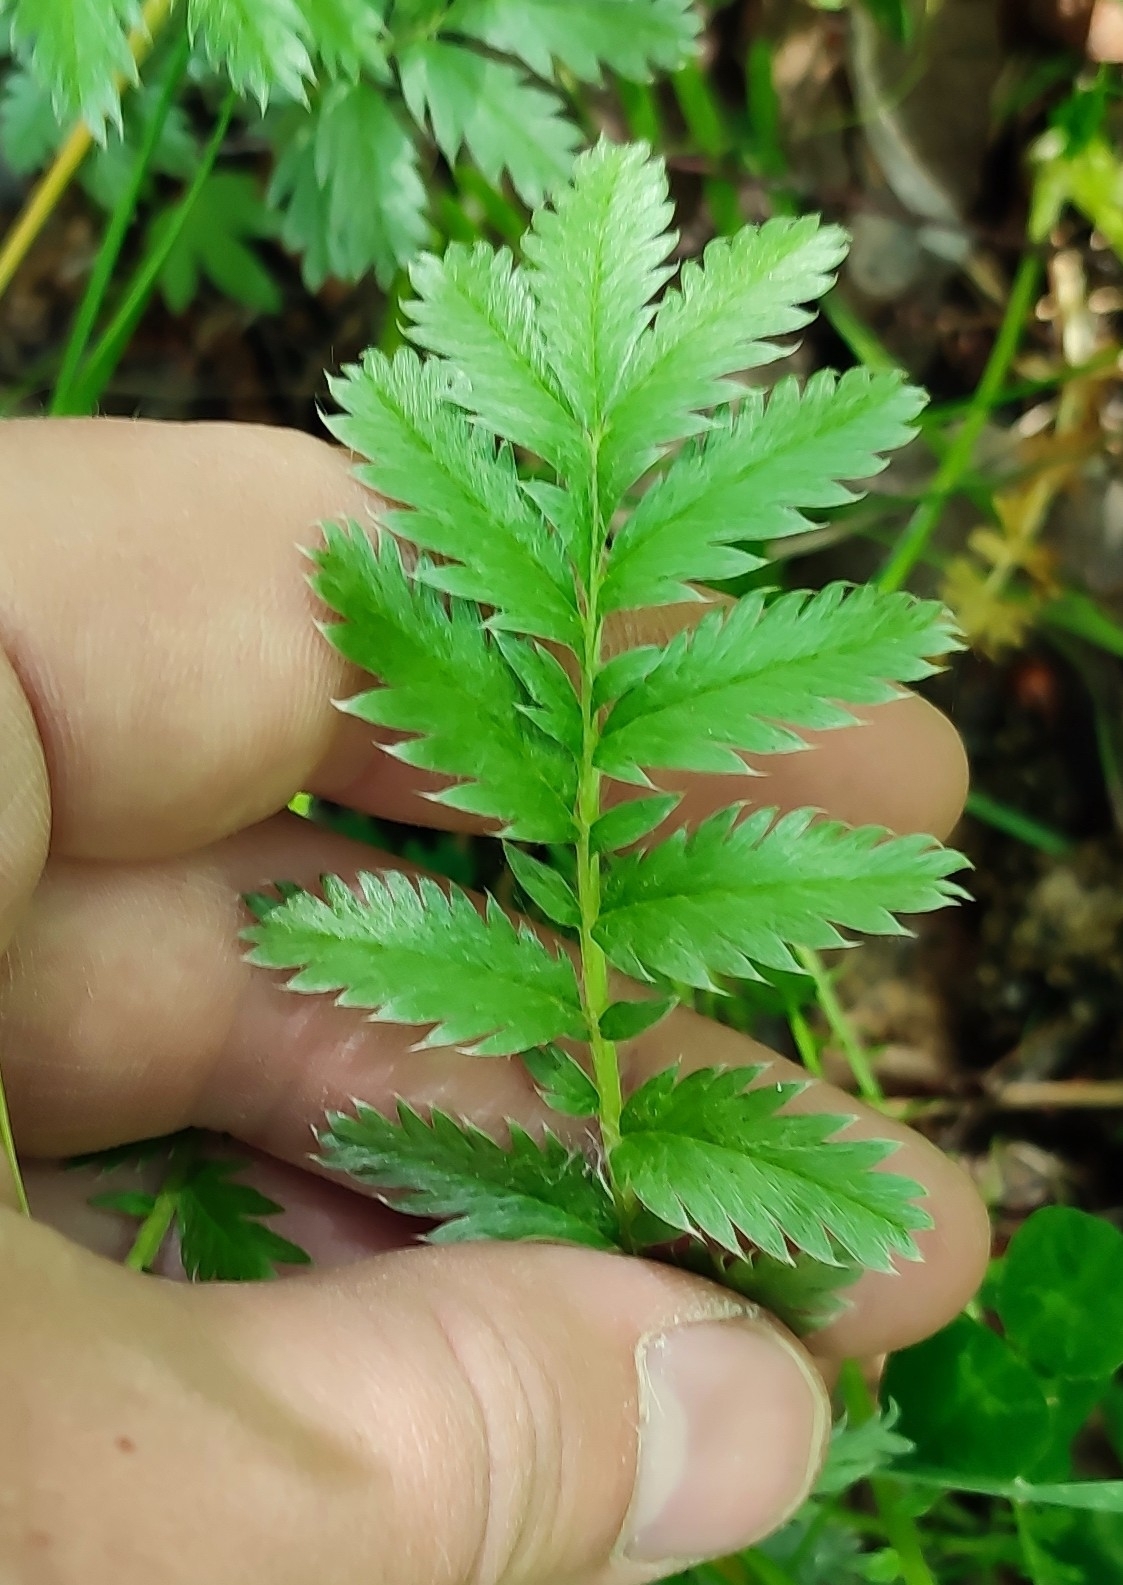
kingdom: Plantae
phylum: Tracheophyta
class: Magnoliopsida
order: Rosales
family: Rosaceae
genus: Argentina
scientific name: Argentina anserina
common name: Common silverweed
